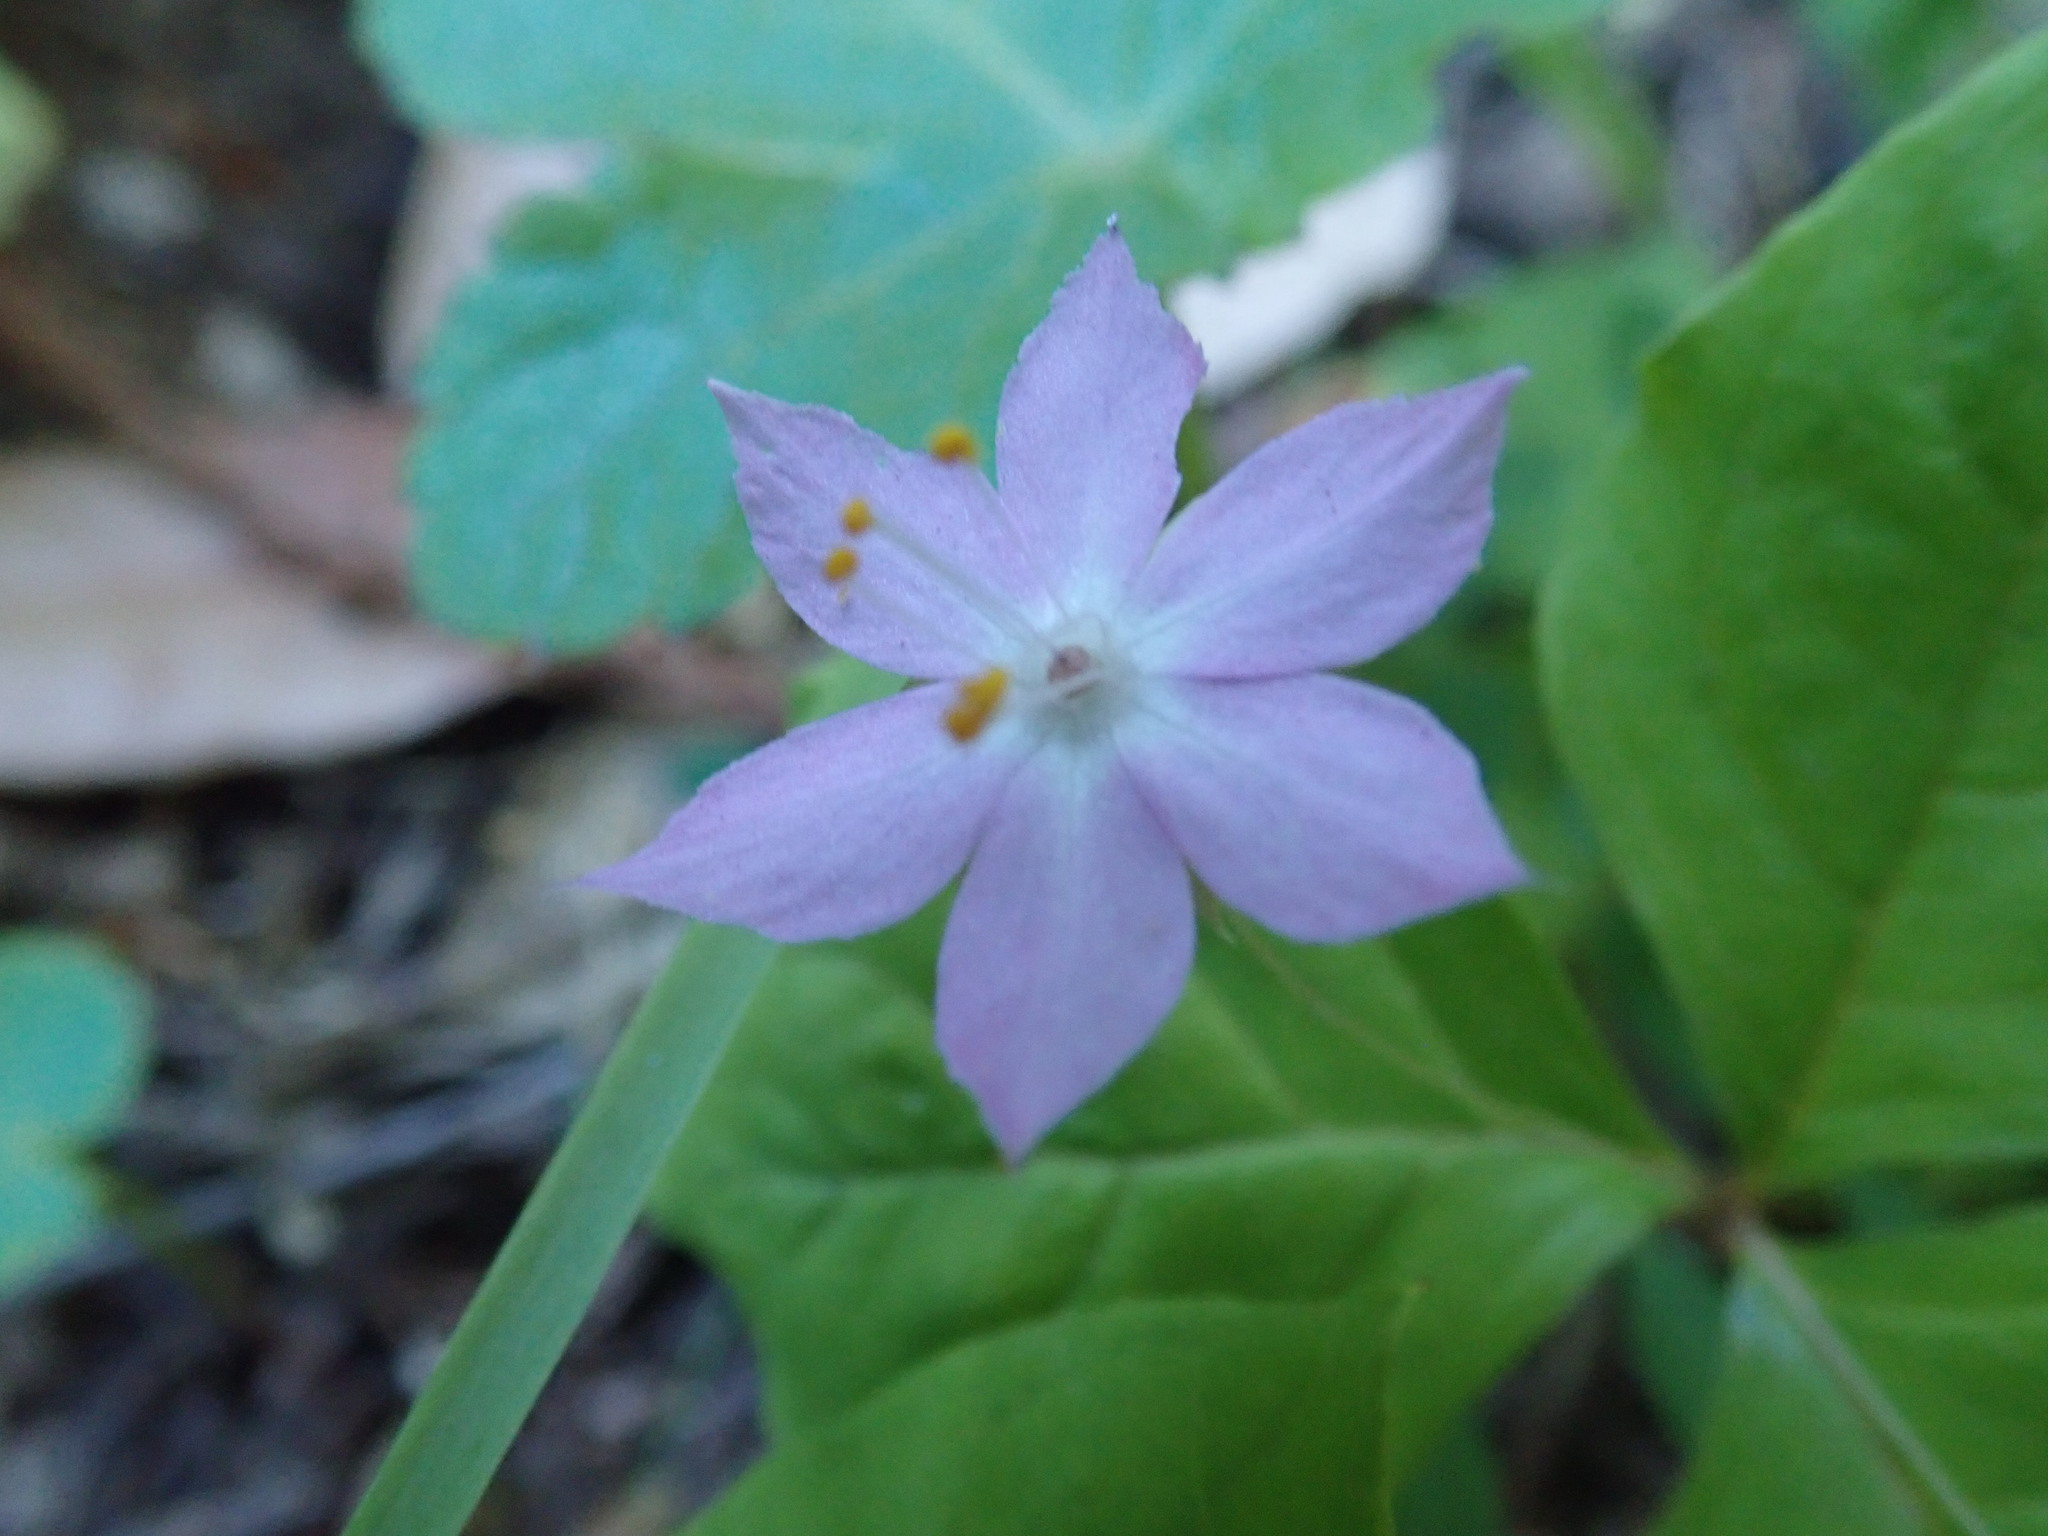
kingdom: Plantae
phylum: Tracheophyta
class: Magnoliopsida
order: Ericales
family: Primulaceae
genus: Lysimachia
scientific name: Lysimachia latifolia
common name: Pacific starflower
